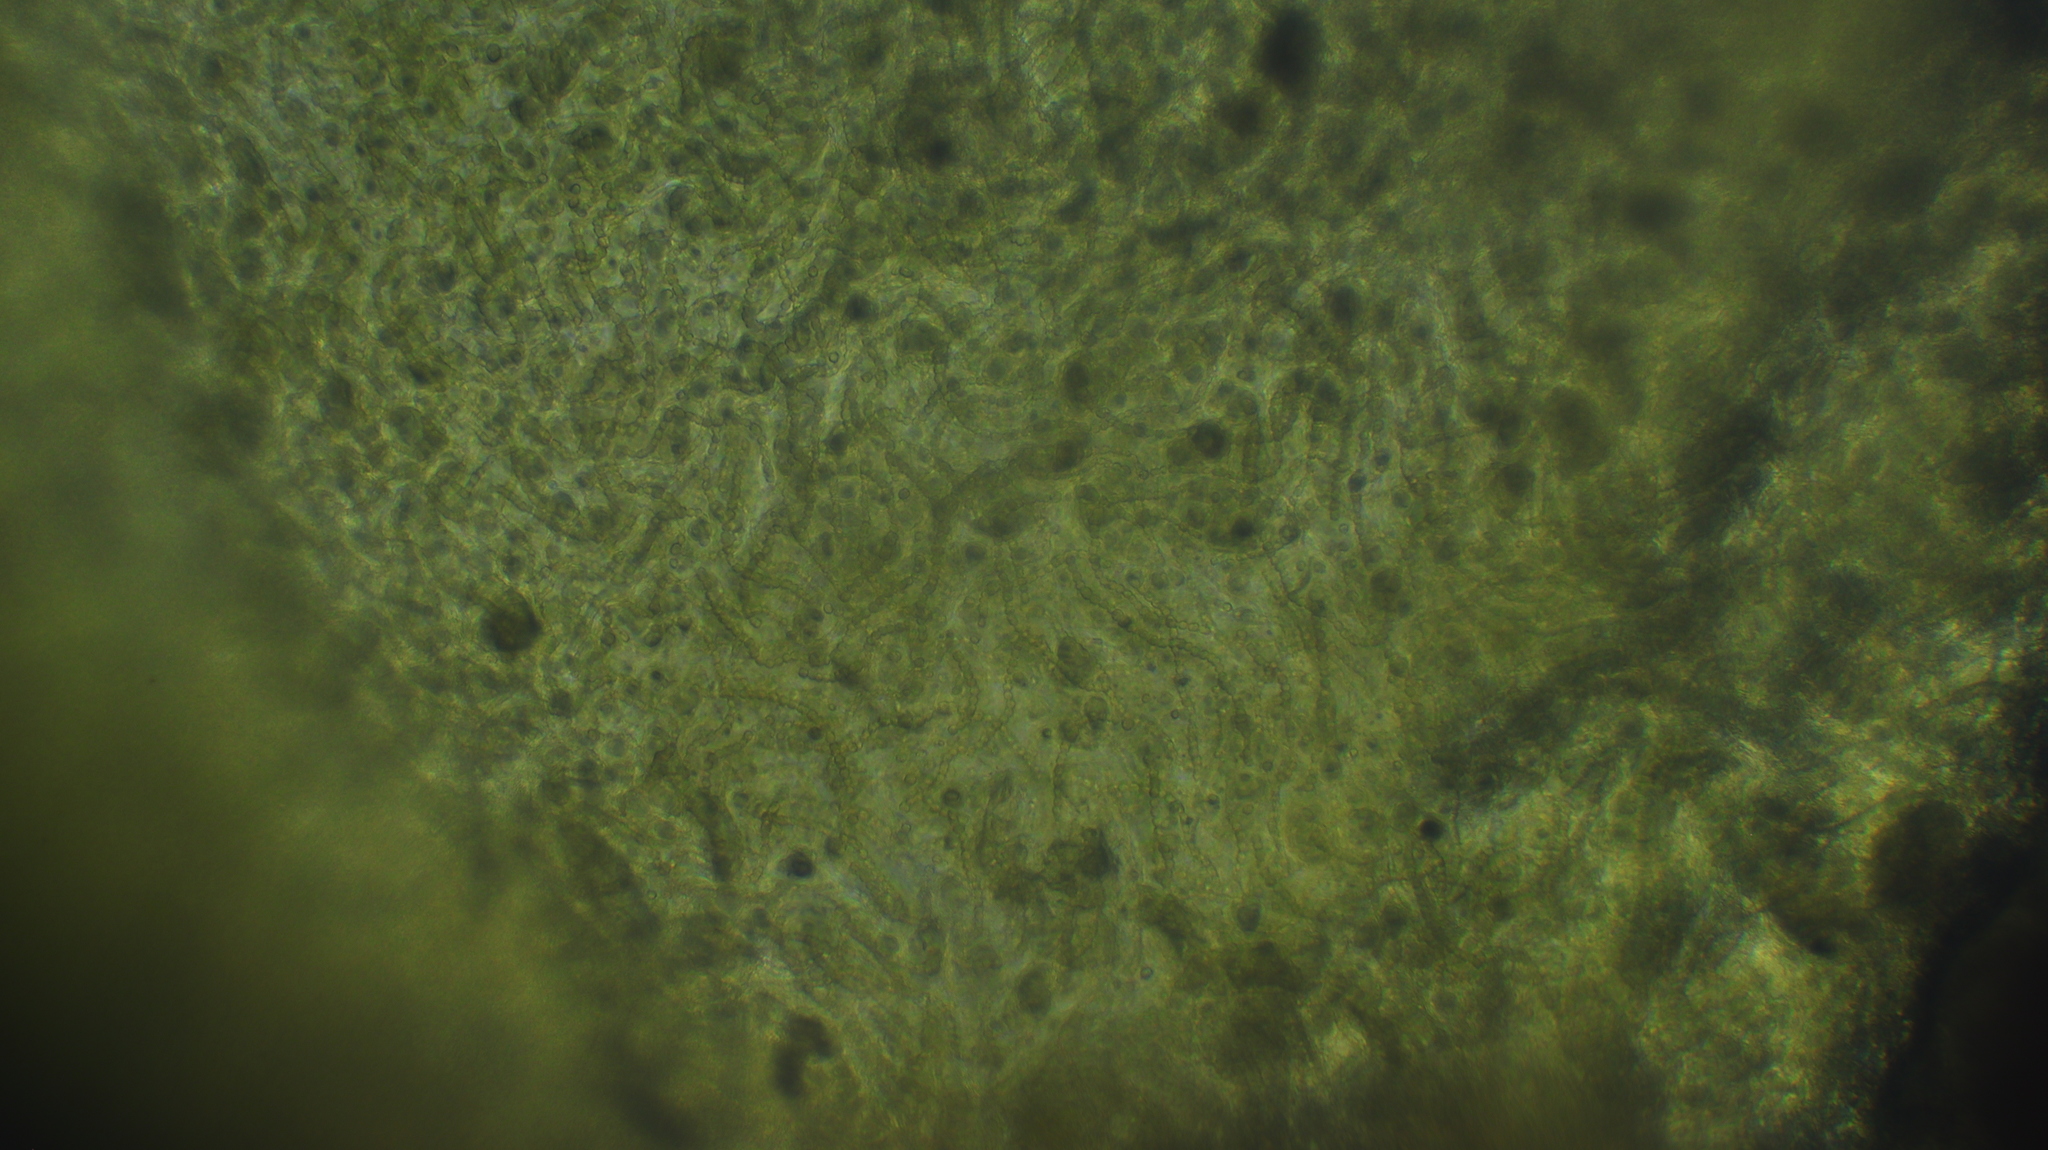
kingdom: Bacteria
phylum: Cyanobacteria
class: Cyanobacteriia
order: Cyanobacteriales
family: Nostocaceae
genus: Nostoc
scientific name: Nostoc commune
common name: Star jelly
